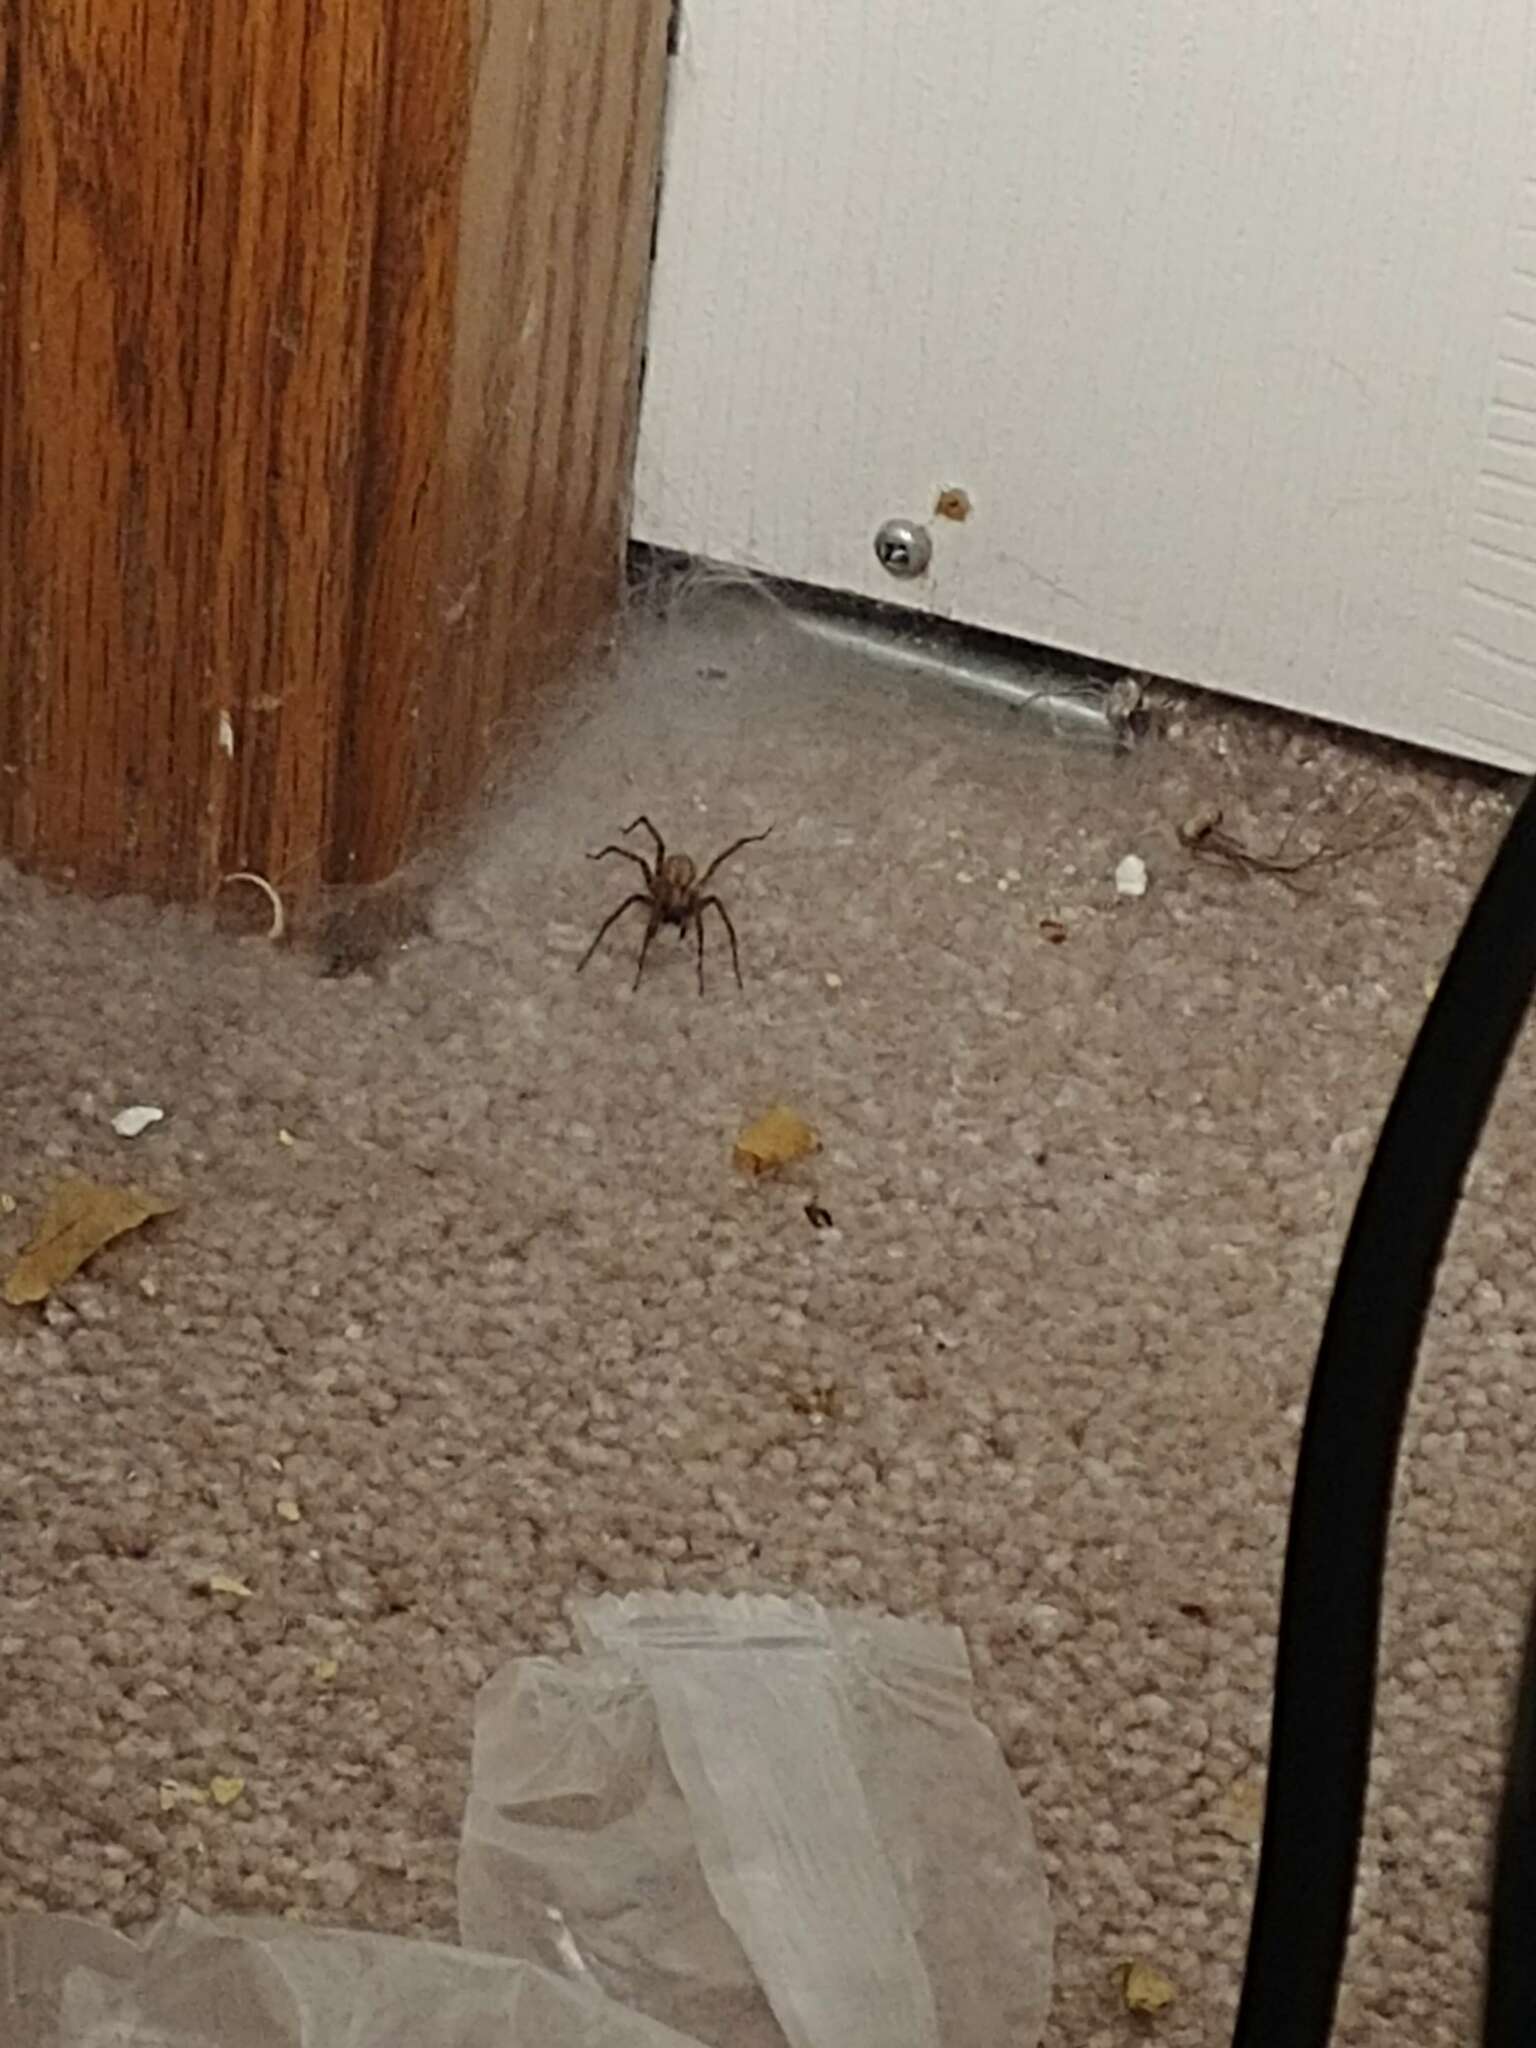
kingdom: Animalia
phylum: Arthropoda
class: Arachnida
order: Araneae
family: Agelenidae
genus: Tegenaria
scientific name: Tegenaria domestica
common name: Barn funnel weaver
